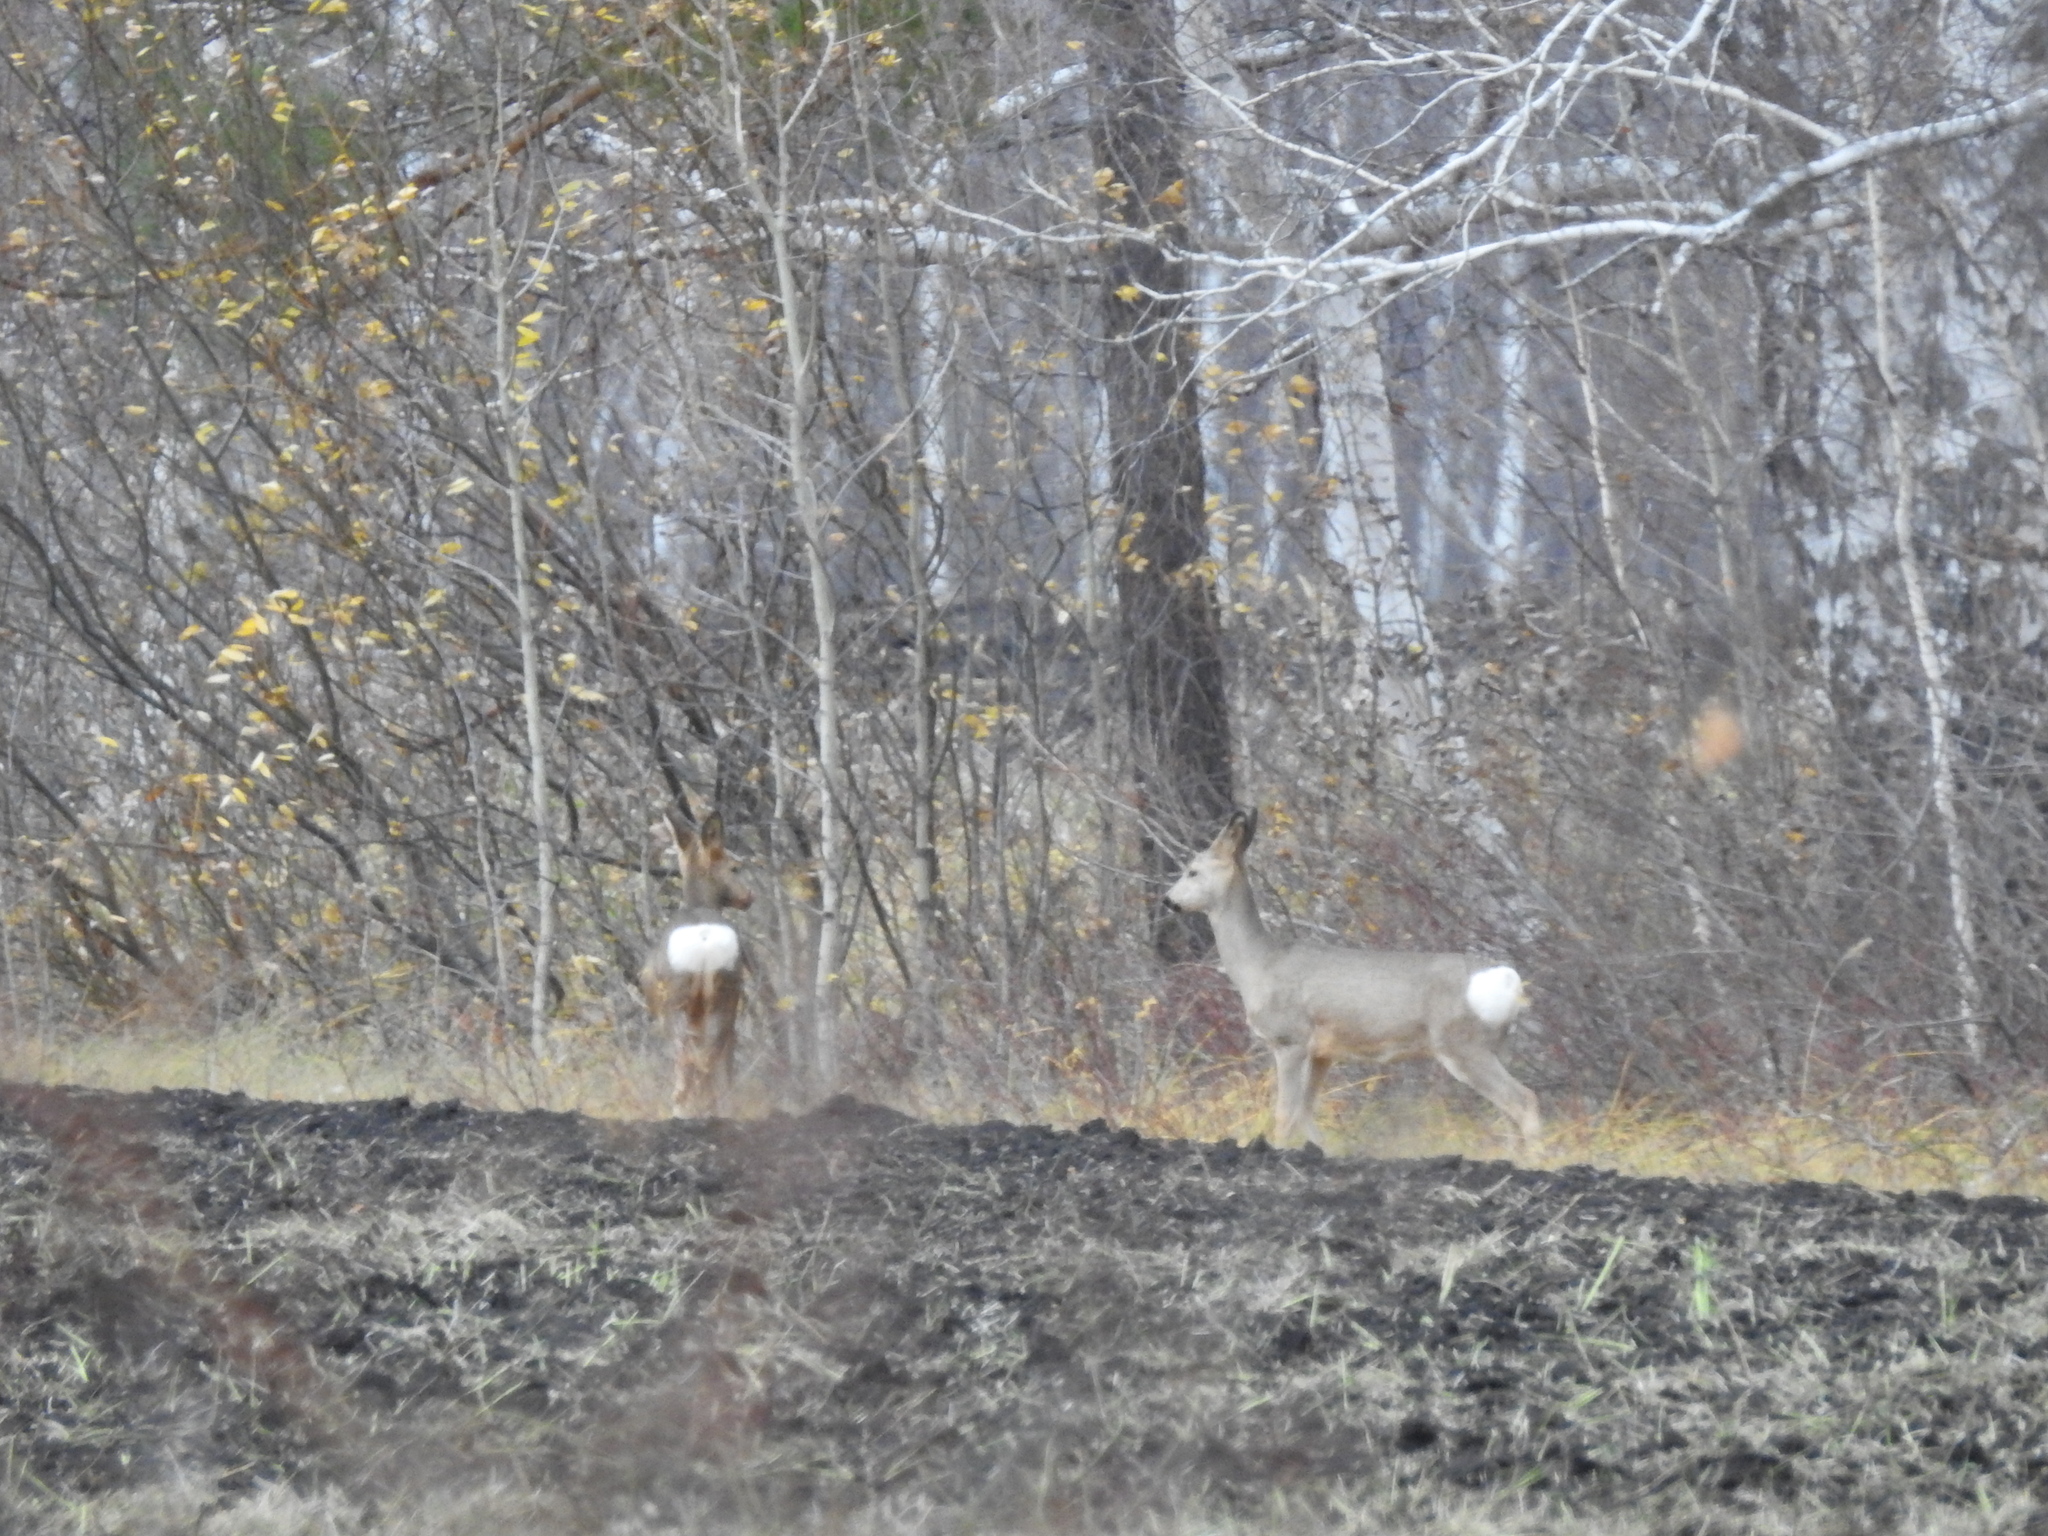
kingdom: Animalia
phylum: Chordata
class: Mammalia
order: Artiodactyla
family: Cervidae
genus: Capreolus
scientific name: Capreolus pygargus
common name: Siberian roe
